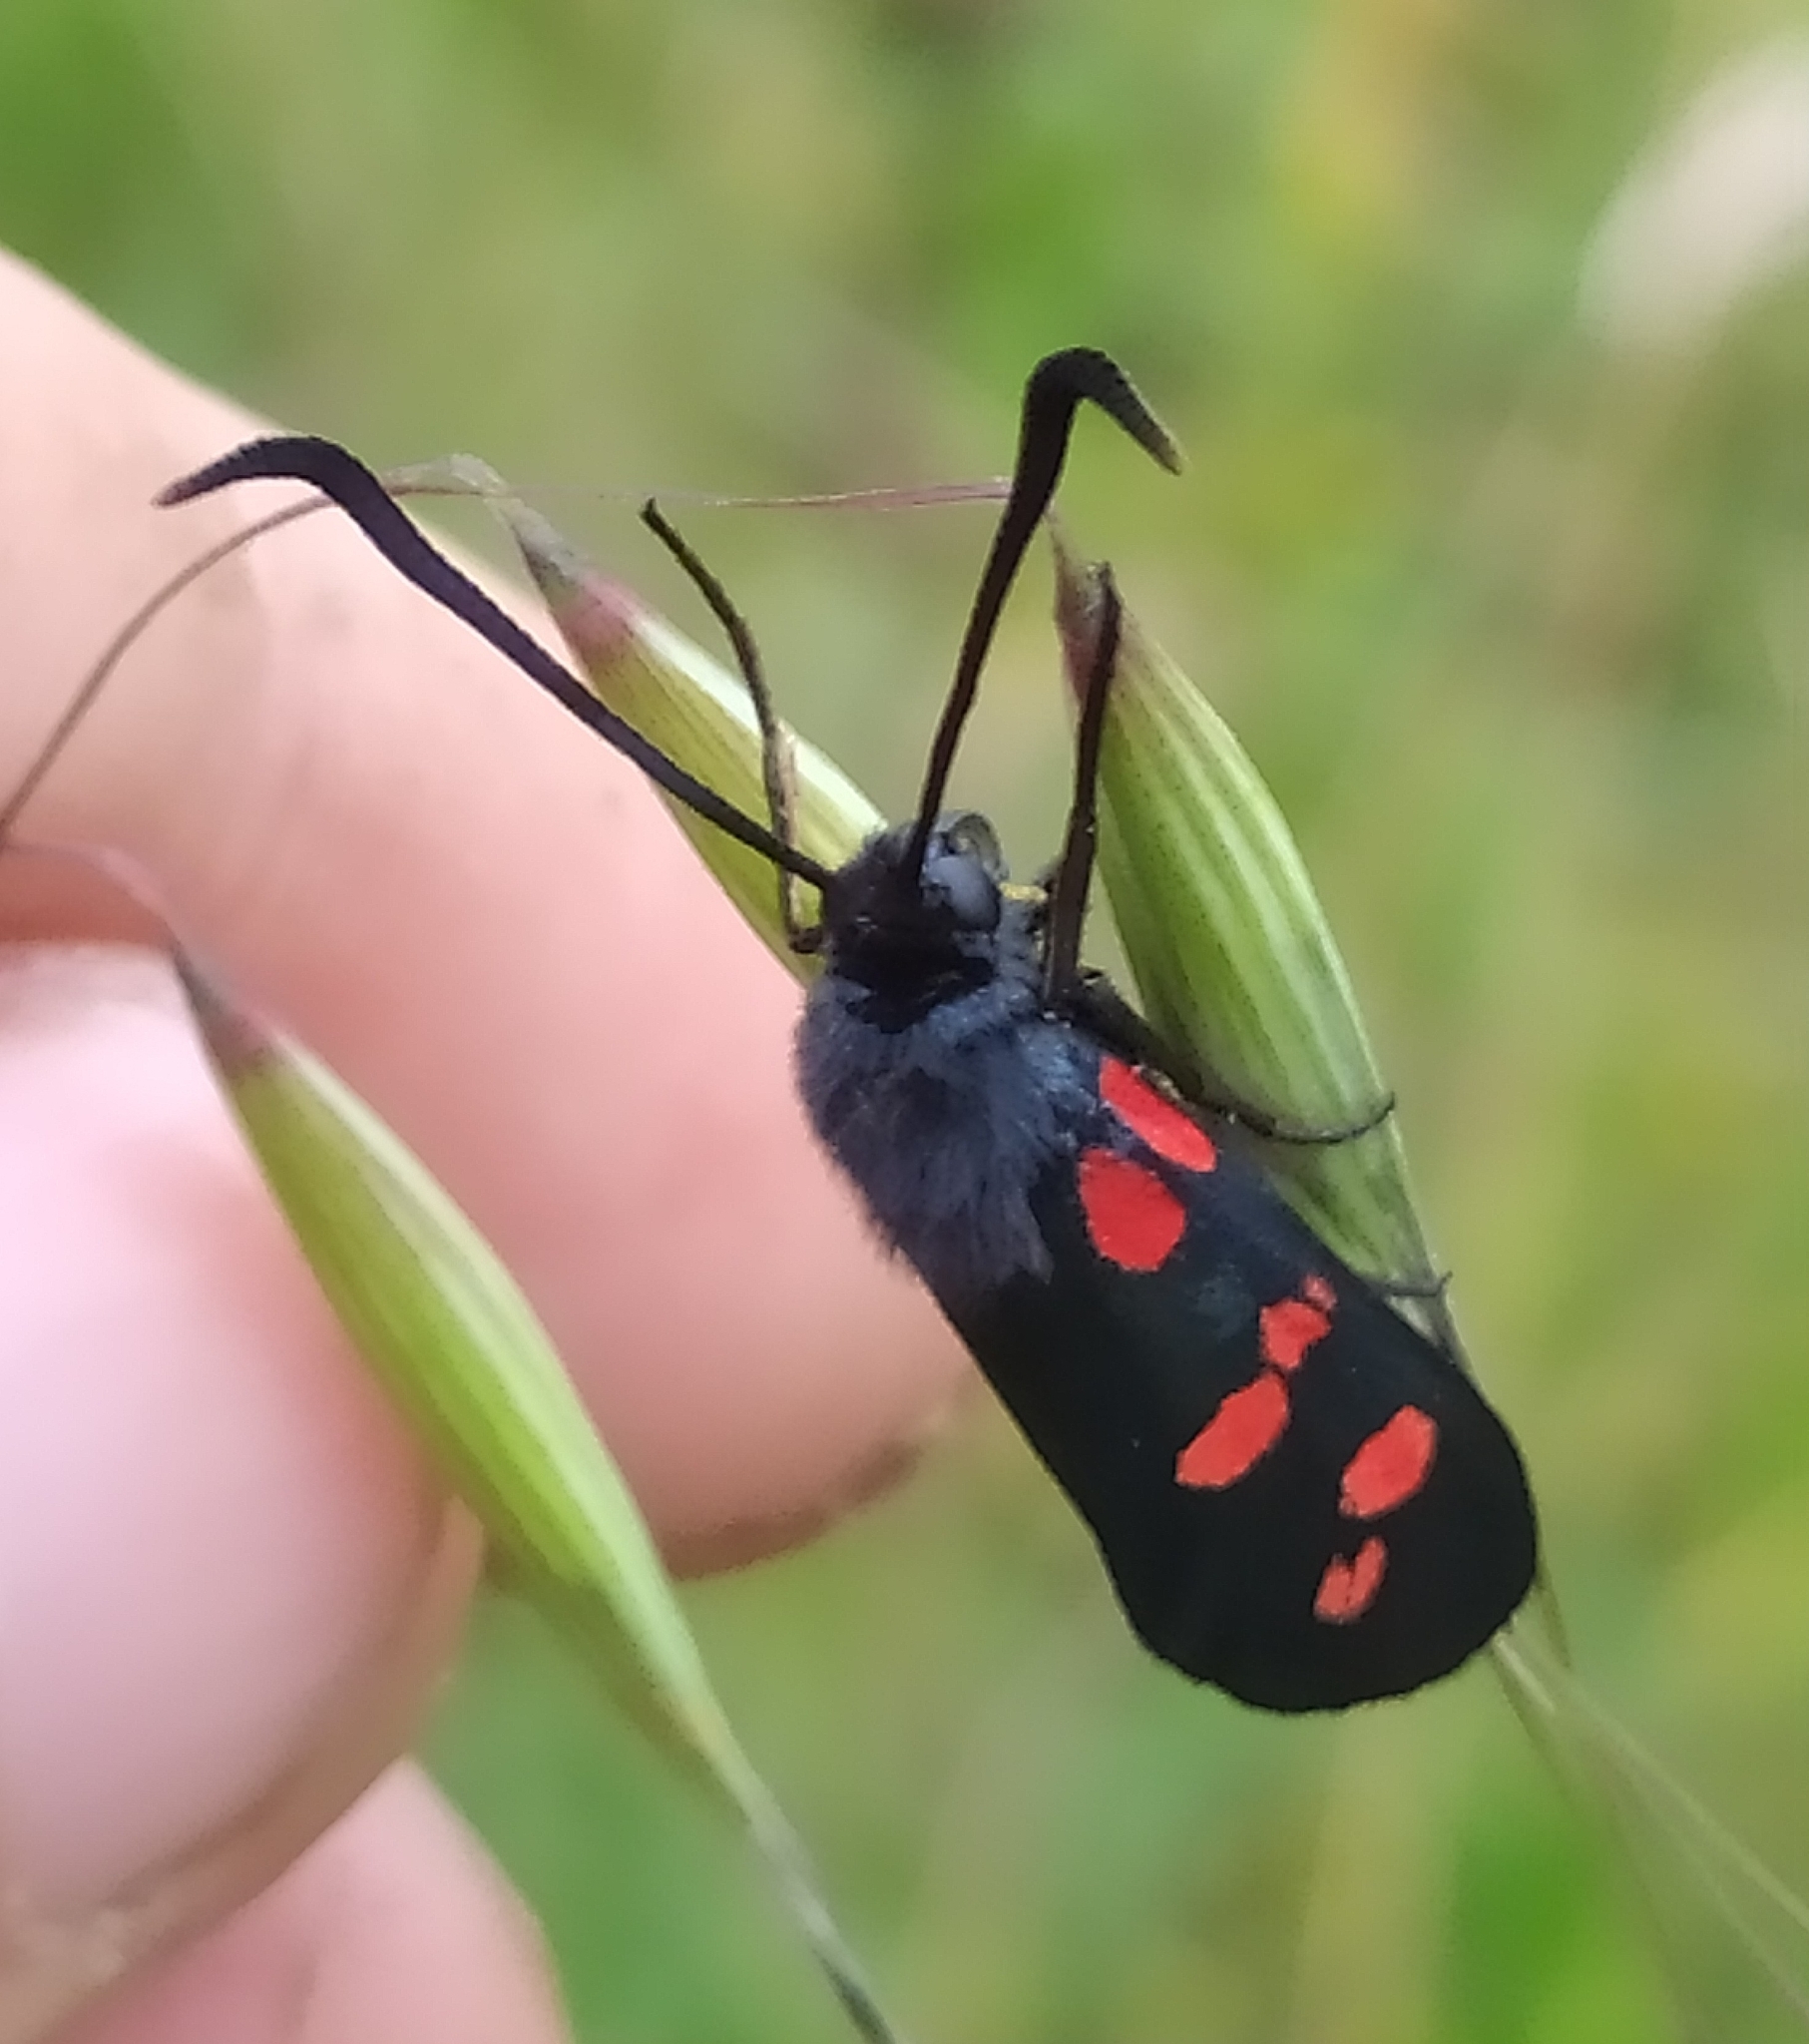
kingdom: Animalia
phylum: Arthropoda
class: Insecta
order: Lepidoptera
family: Zygaenidae
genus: Zygaena
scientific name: Zygaena filipendulae
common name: Six-spot burnet
